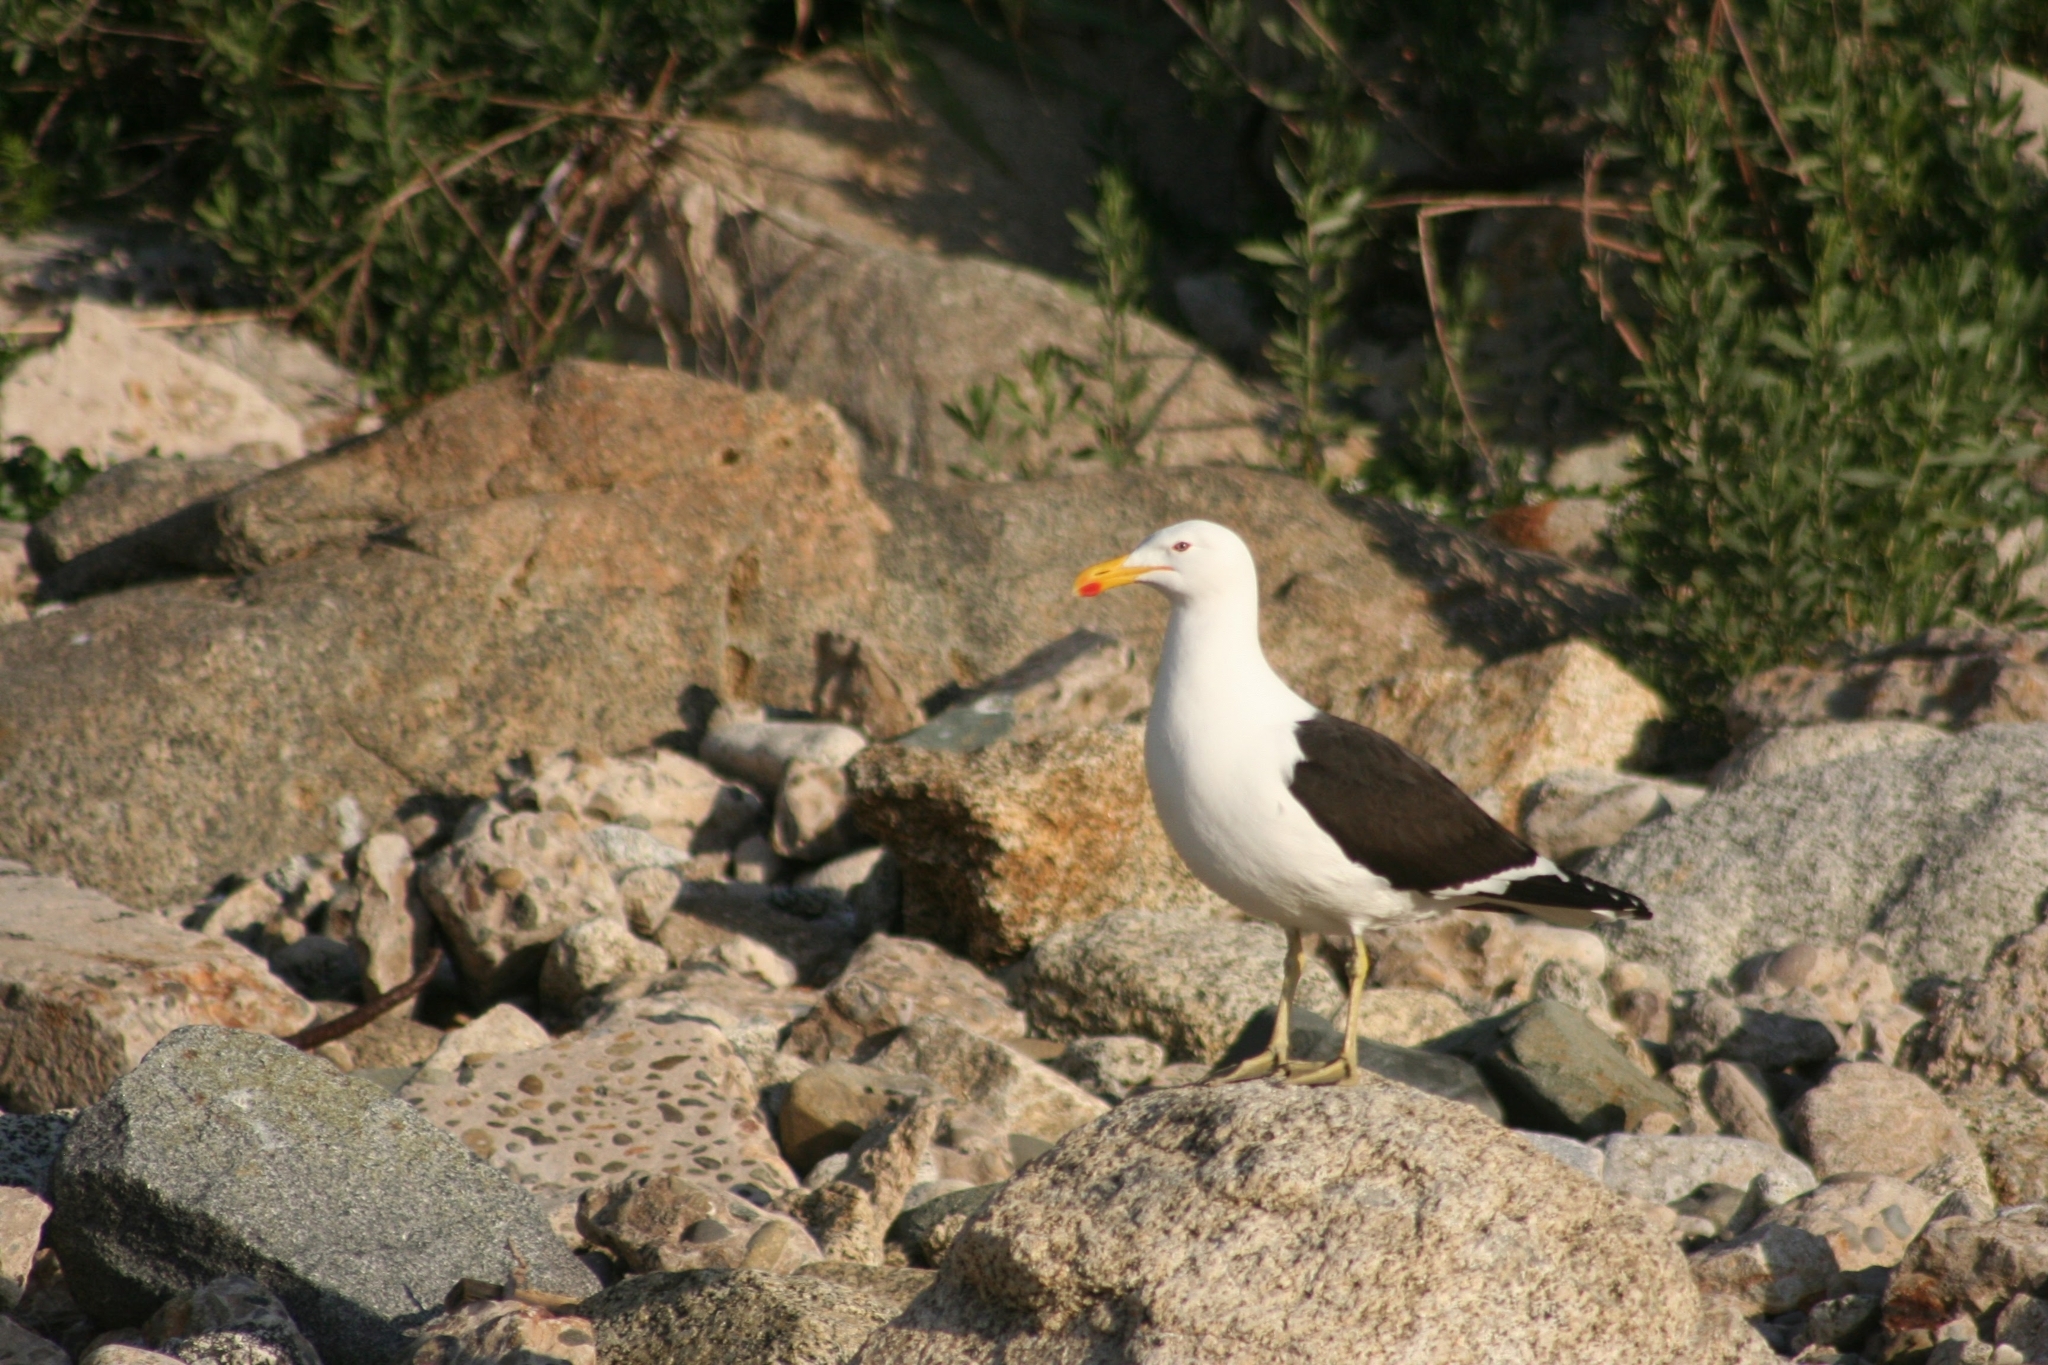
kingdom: Animalia
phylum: Chordata
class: Aves
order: Charadriiformes
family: Laridae
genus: Larus
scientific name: Larus dominicanus
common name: Kelp gull
